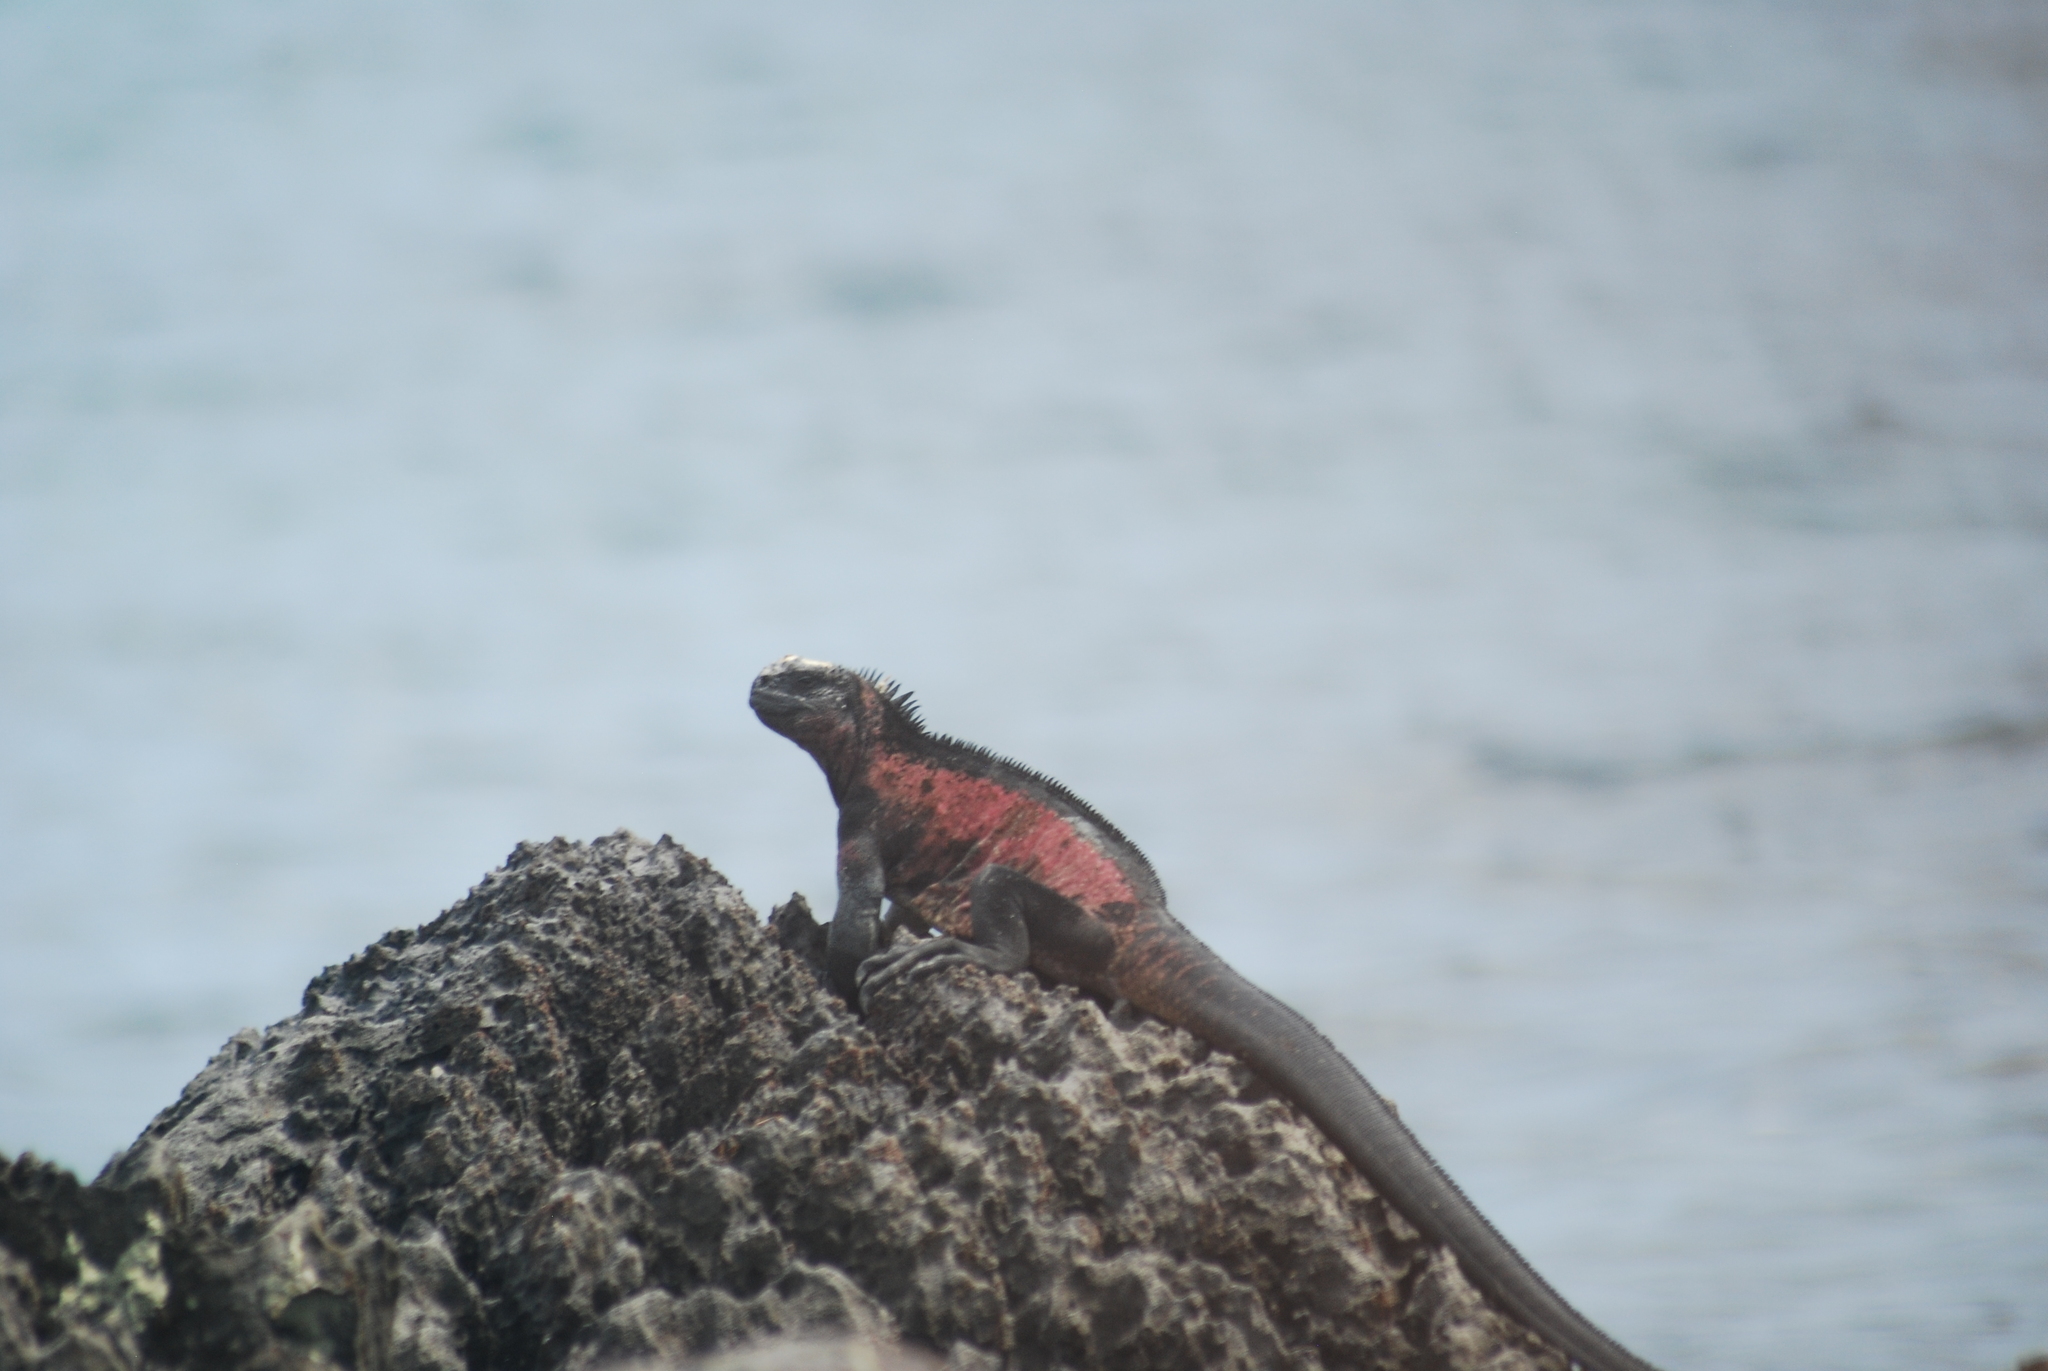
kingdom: Animalia
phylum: Chordata
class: Squamata
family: Iguanidae
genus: Amblyrhynchus
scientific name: Amblyrhynchus cristatus
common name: Marine iguana
